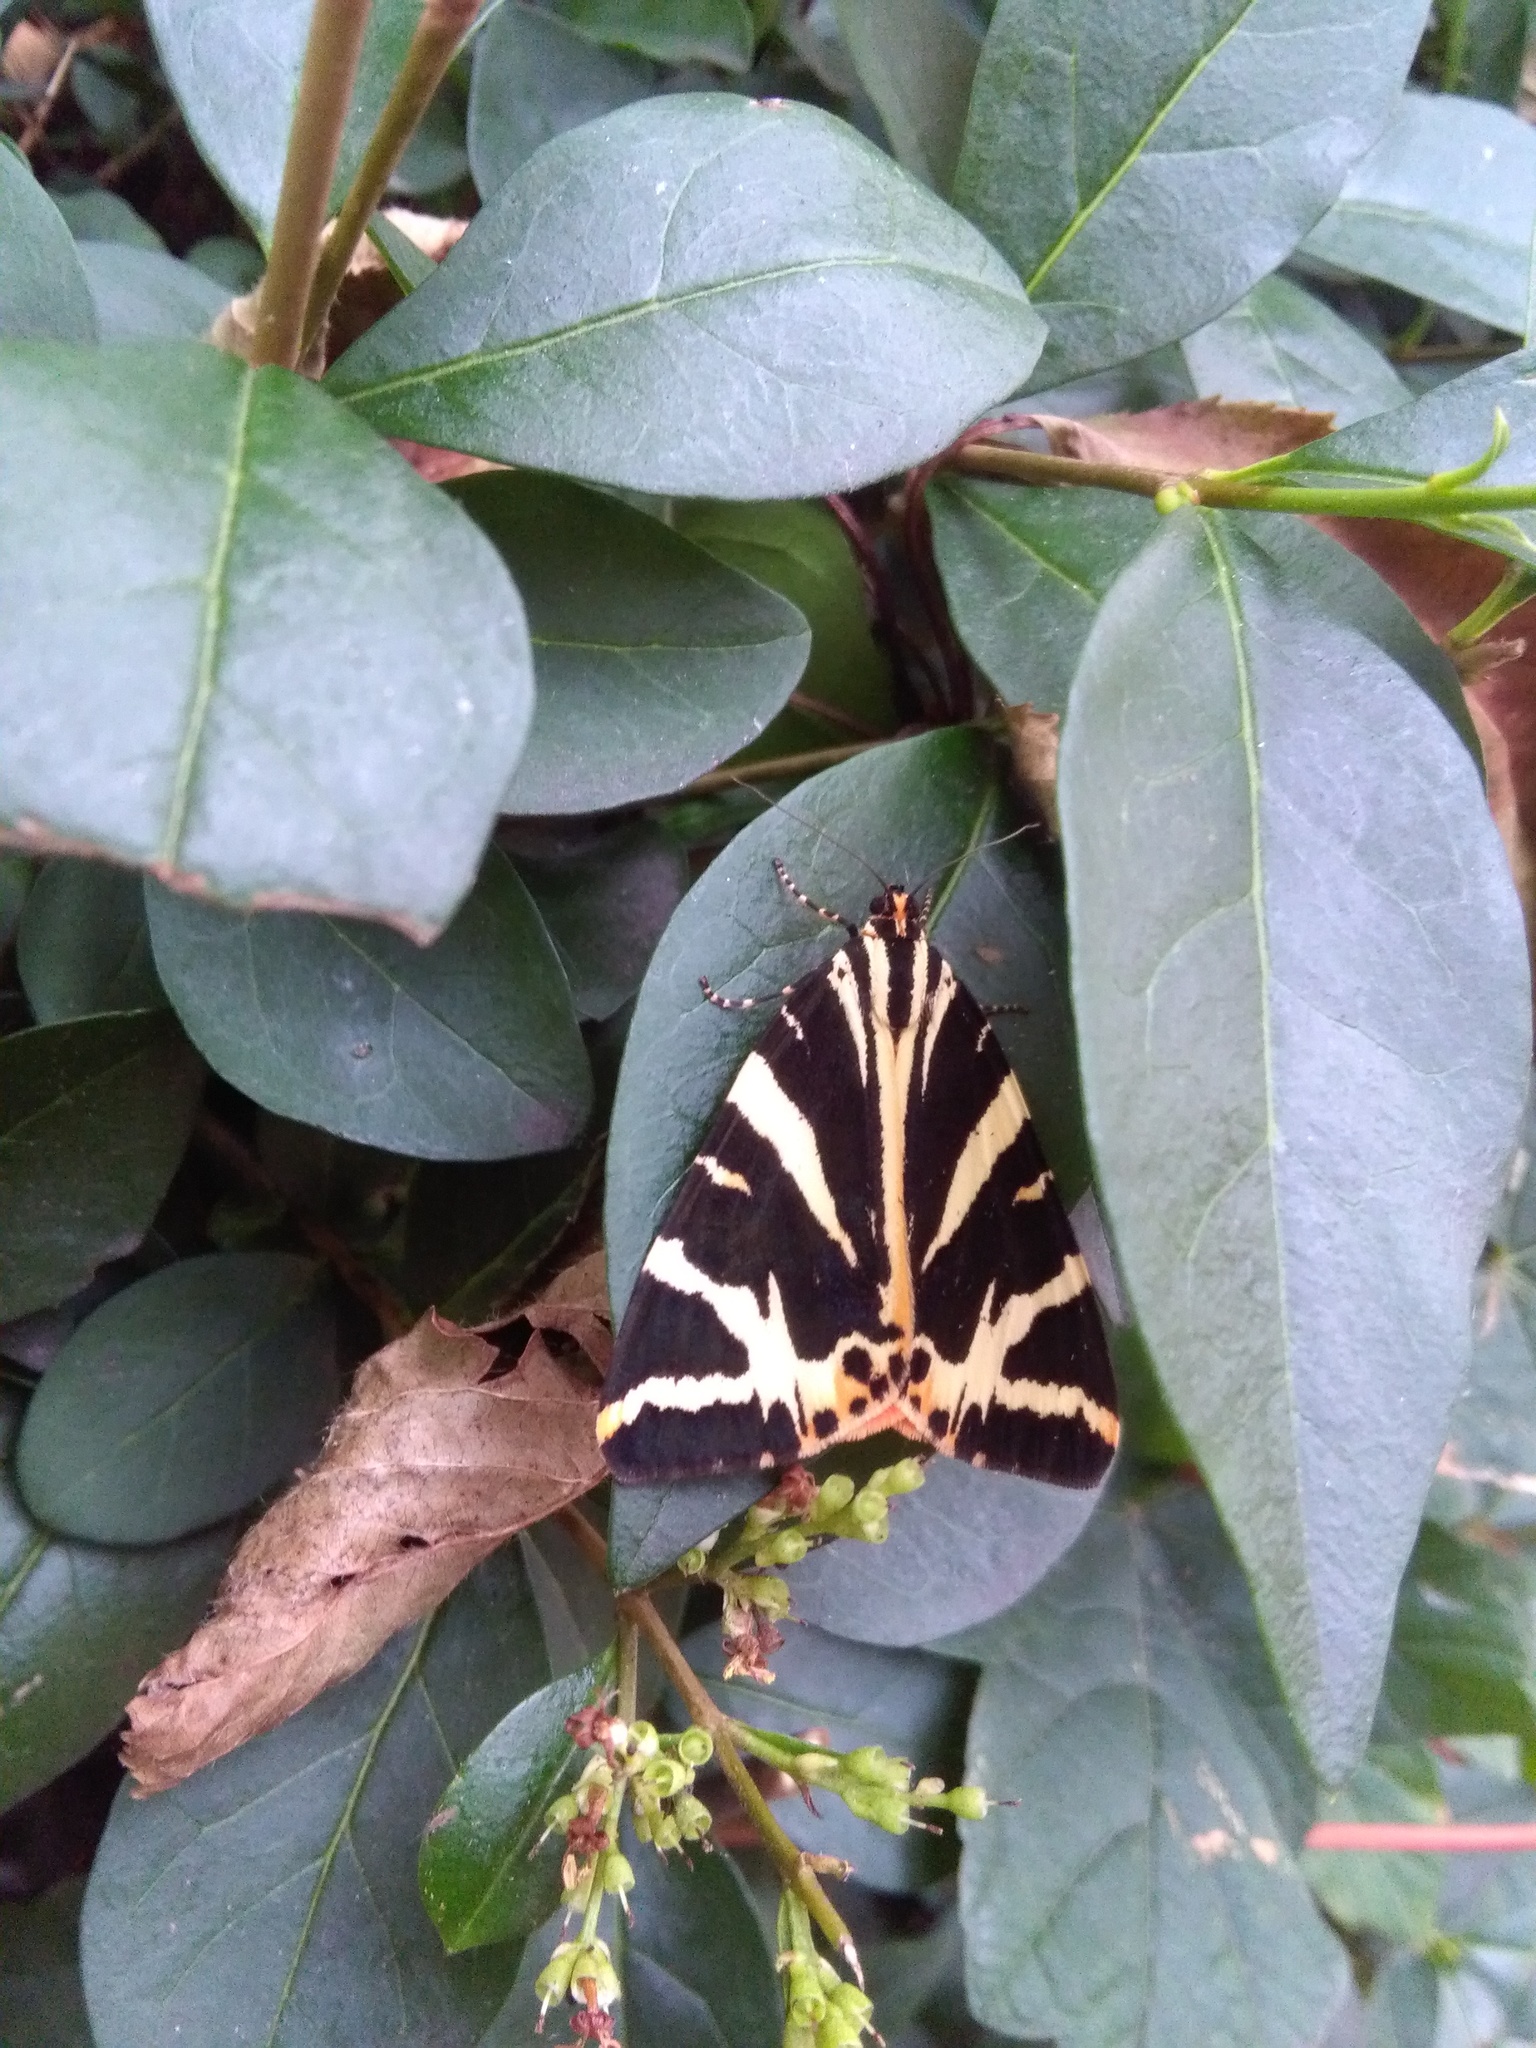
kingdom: Animalia
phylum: Arthropoda
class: Insecta
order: Lepidoptera
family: Erebidae
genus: Euplagia
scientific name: Euplagia quadripunctaria
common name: Jersey tiger
